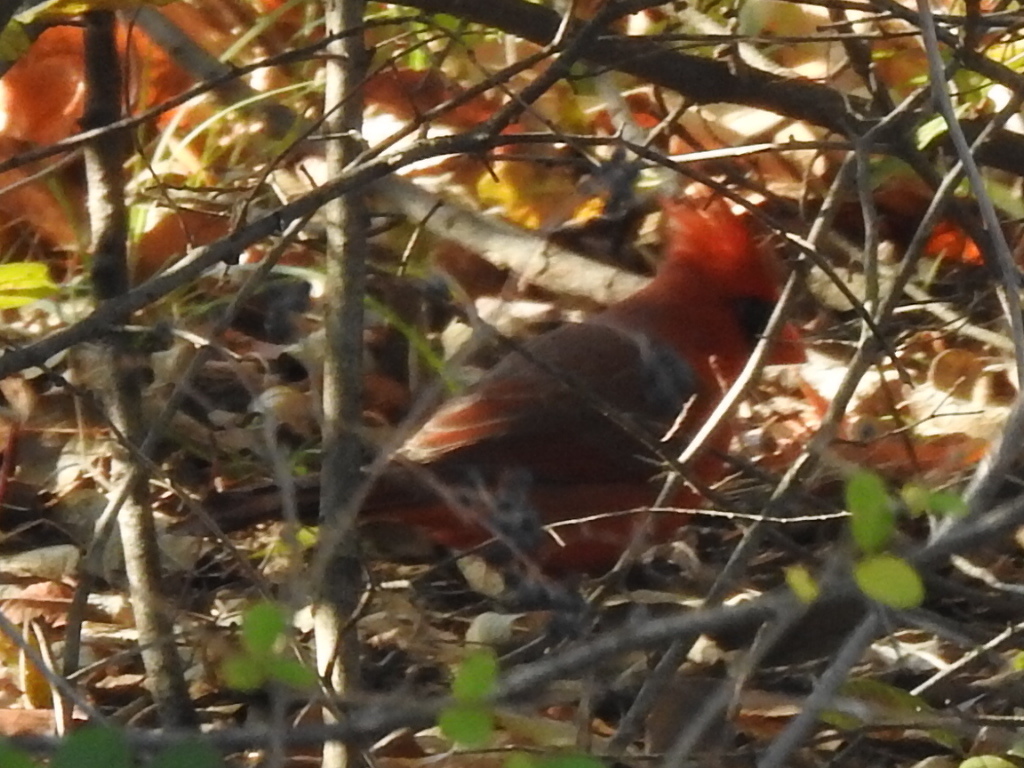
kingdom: Animalia
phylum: Chordata
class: Aves
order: Passeriformes
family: Cardinalidae
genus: Cardinalis
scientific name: Cardinalis cardinalis
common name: Northern cardinal
